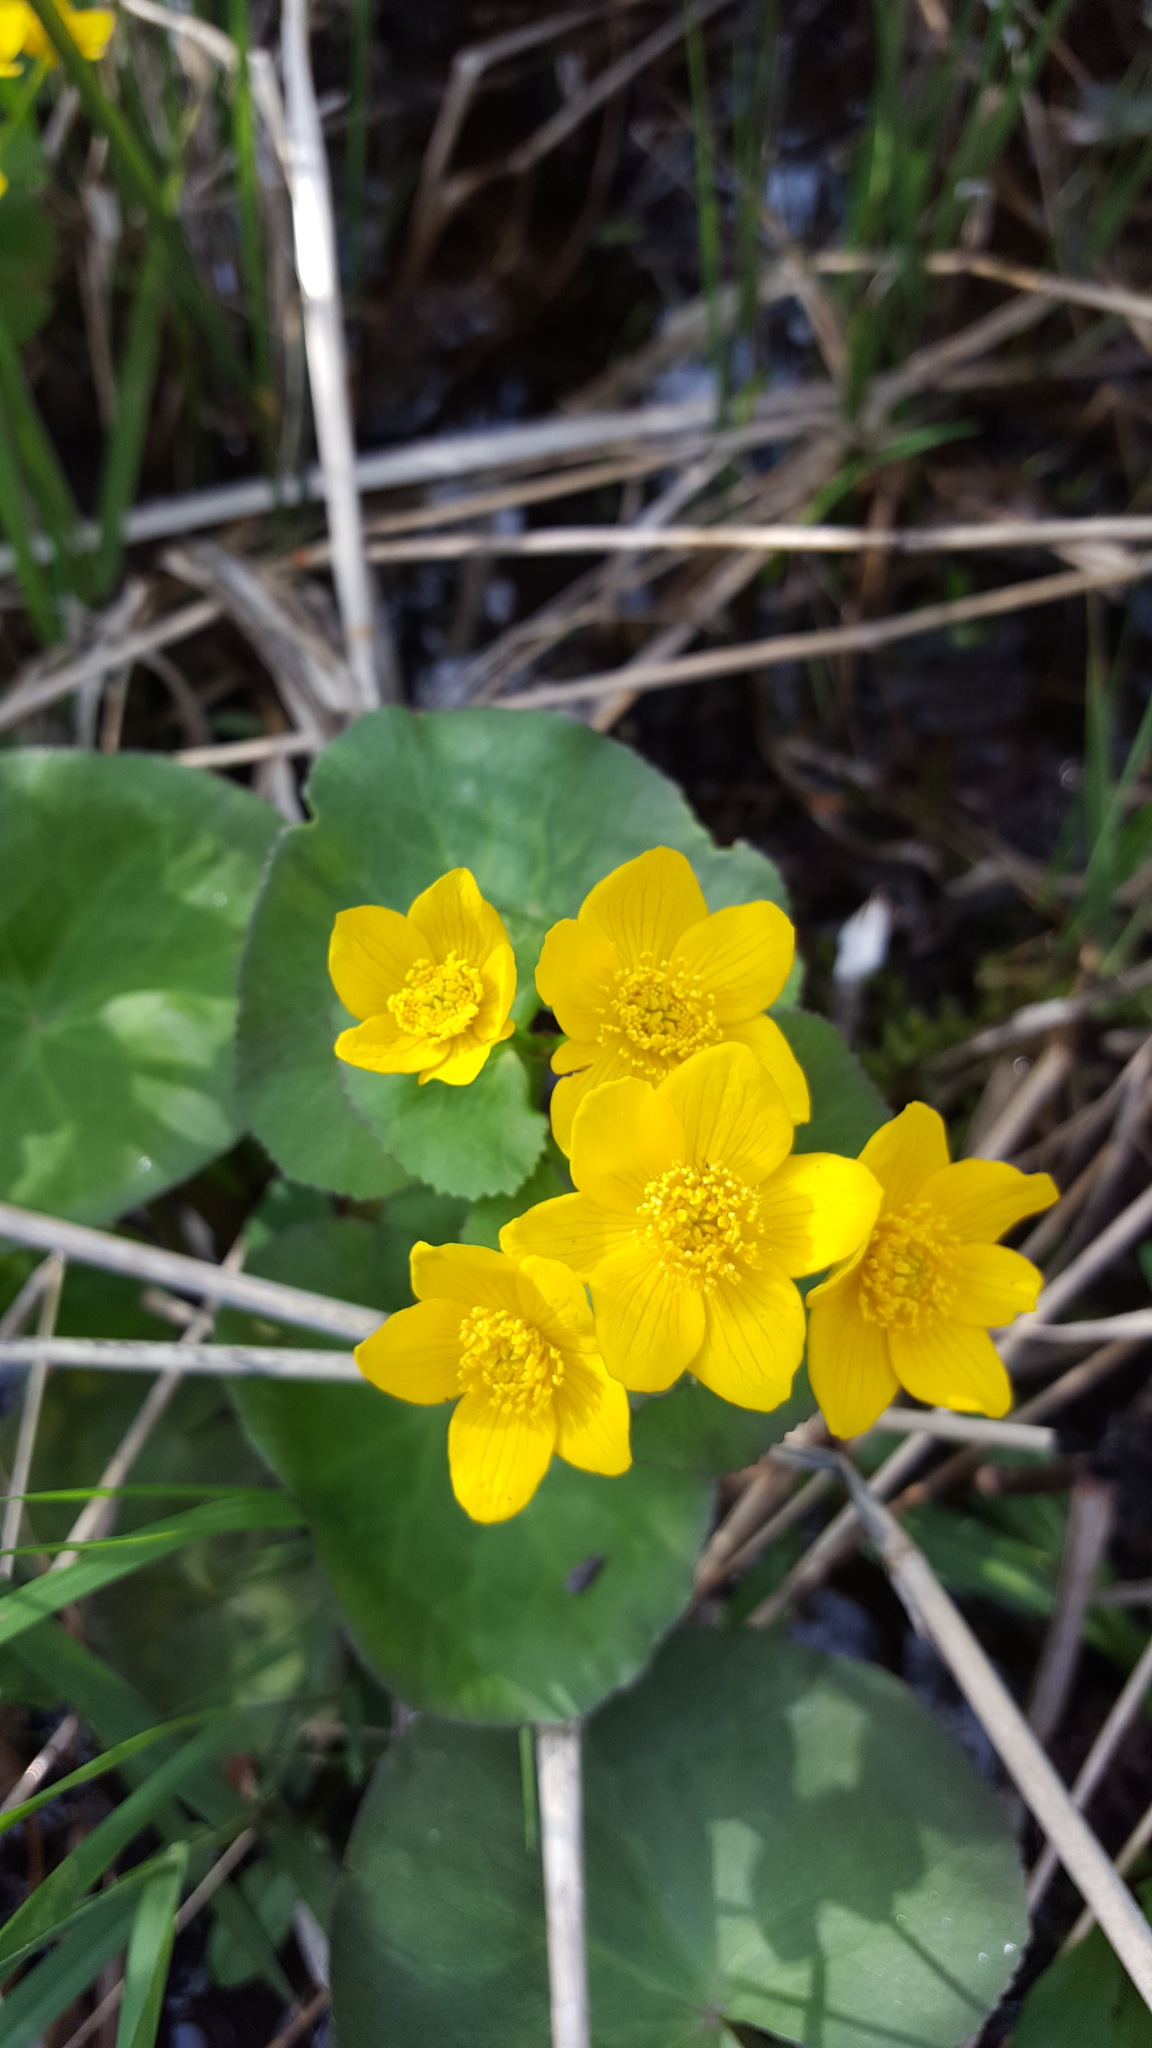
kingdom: Plantae
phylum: Tracheophyta
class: Magnoliopsida
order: Ranunculales
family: Ranunculaceae
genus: Caltha
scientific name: Caltha palustris
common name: Marsh marigold
